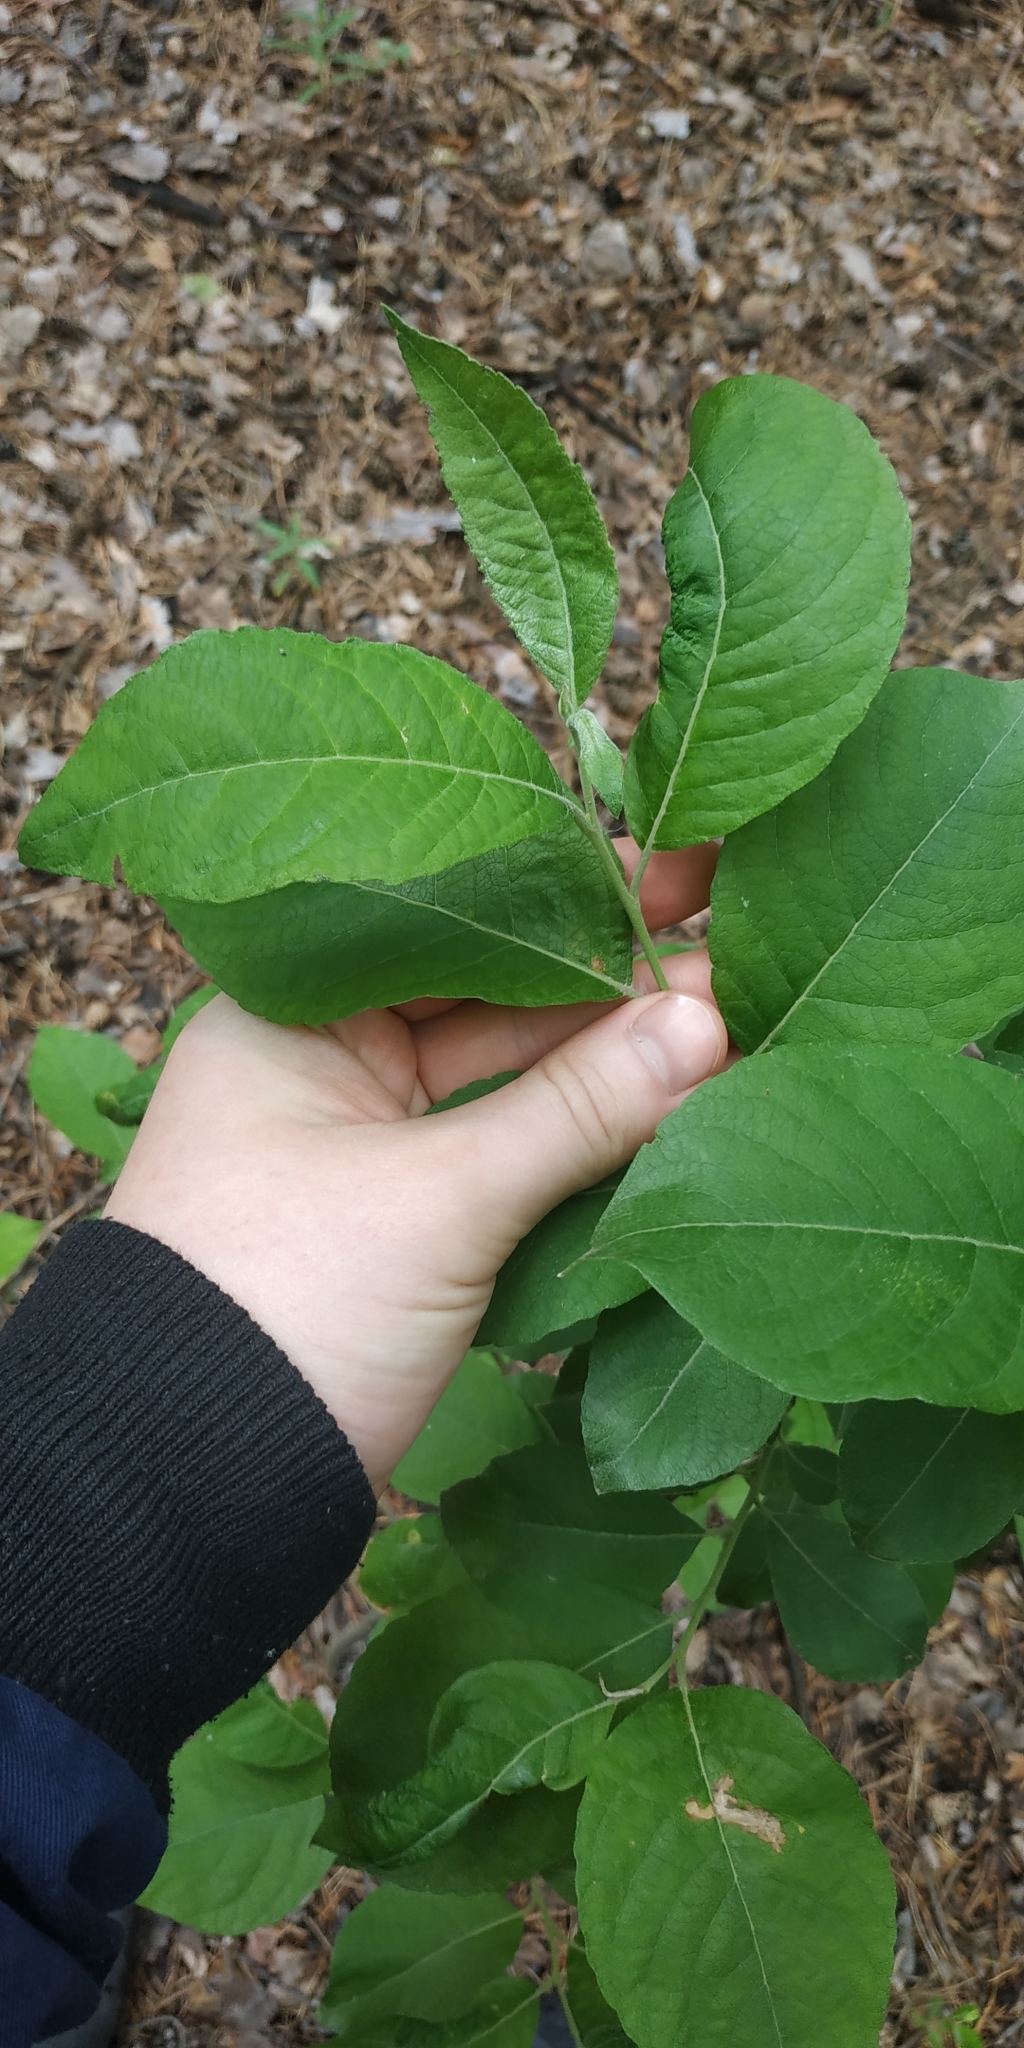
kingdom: Plantae
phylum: Tracheophyta
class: Magnoliopsida
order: Malpighiales
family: Salicaceae
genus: Salix
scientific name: Salix caprea
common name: Goat willow
